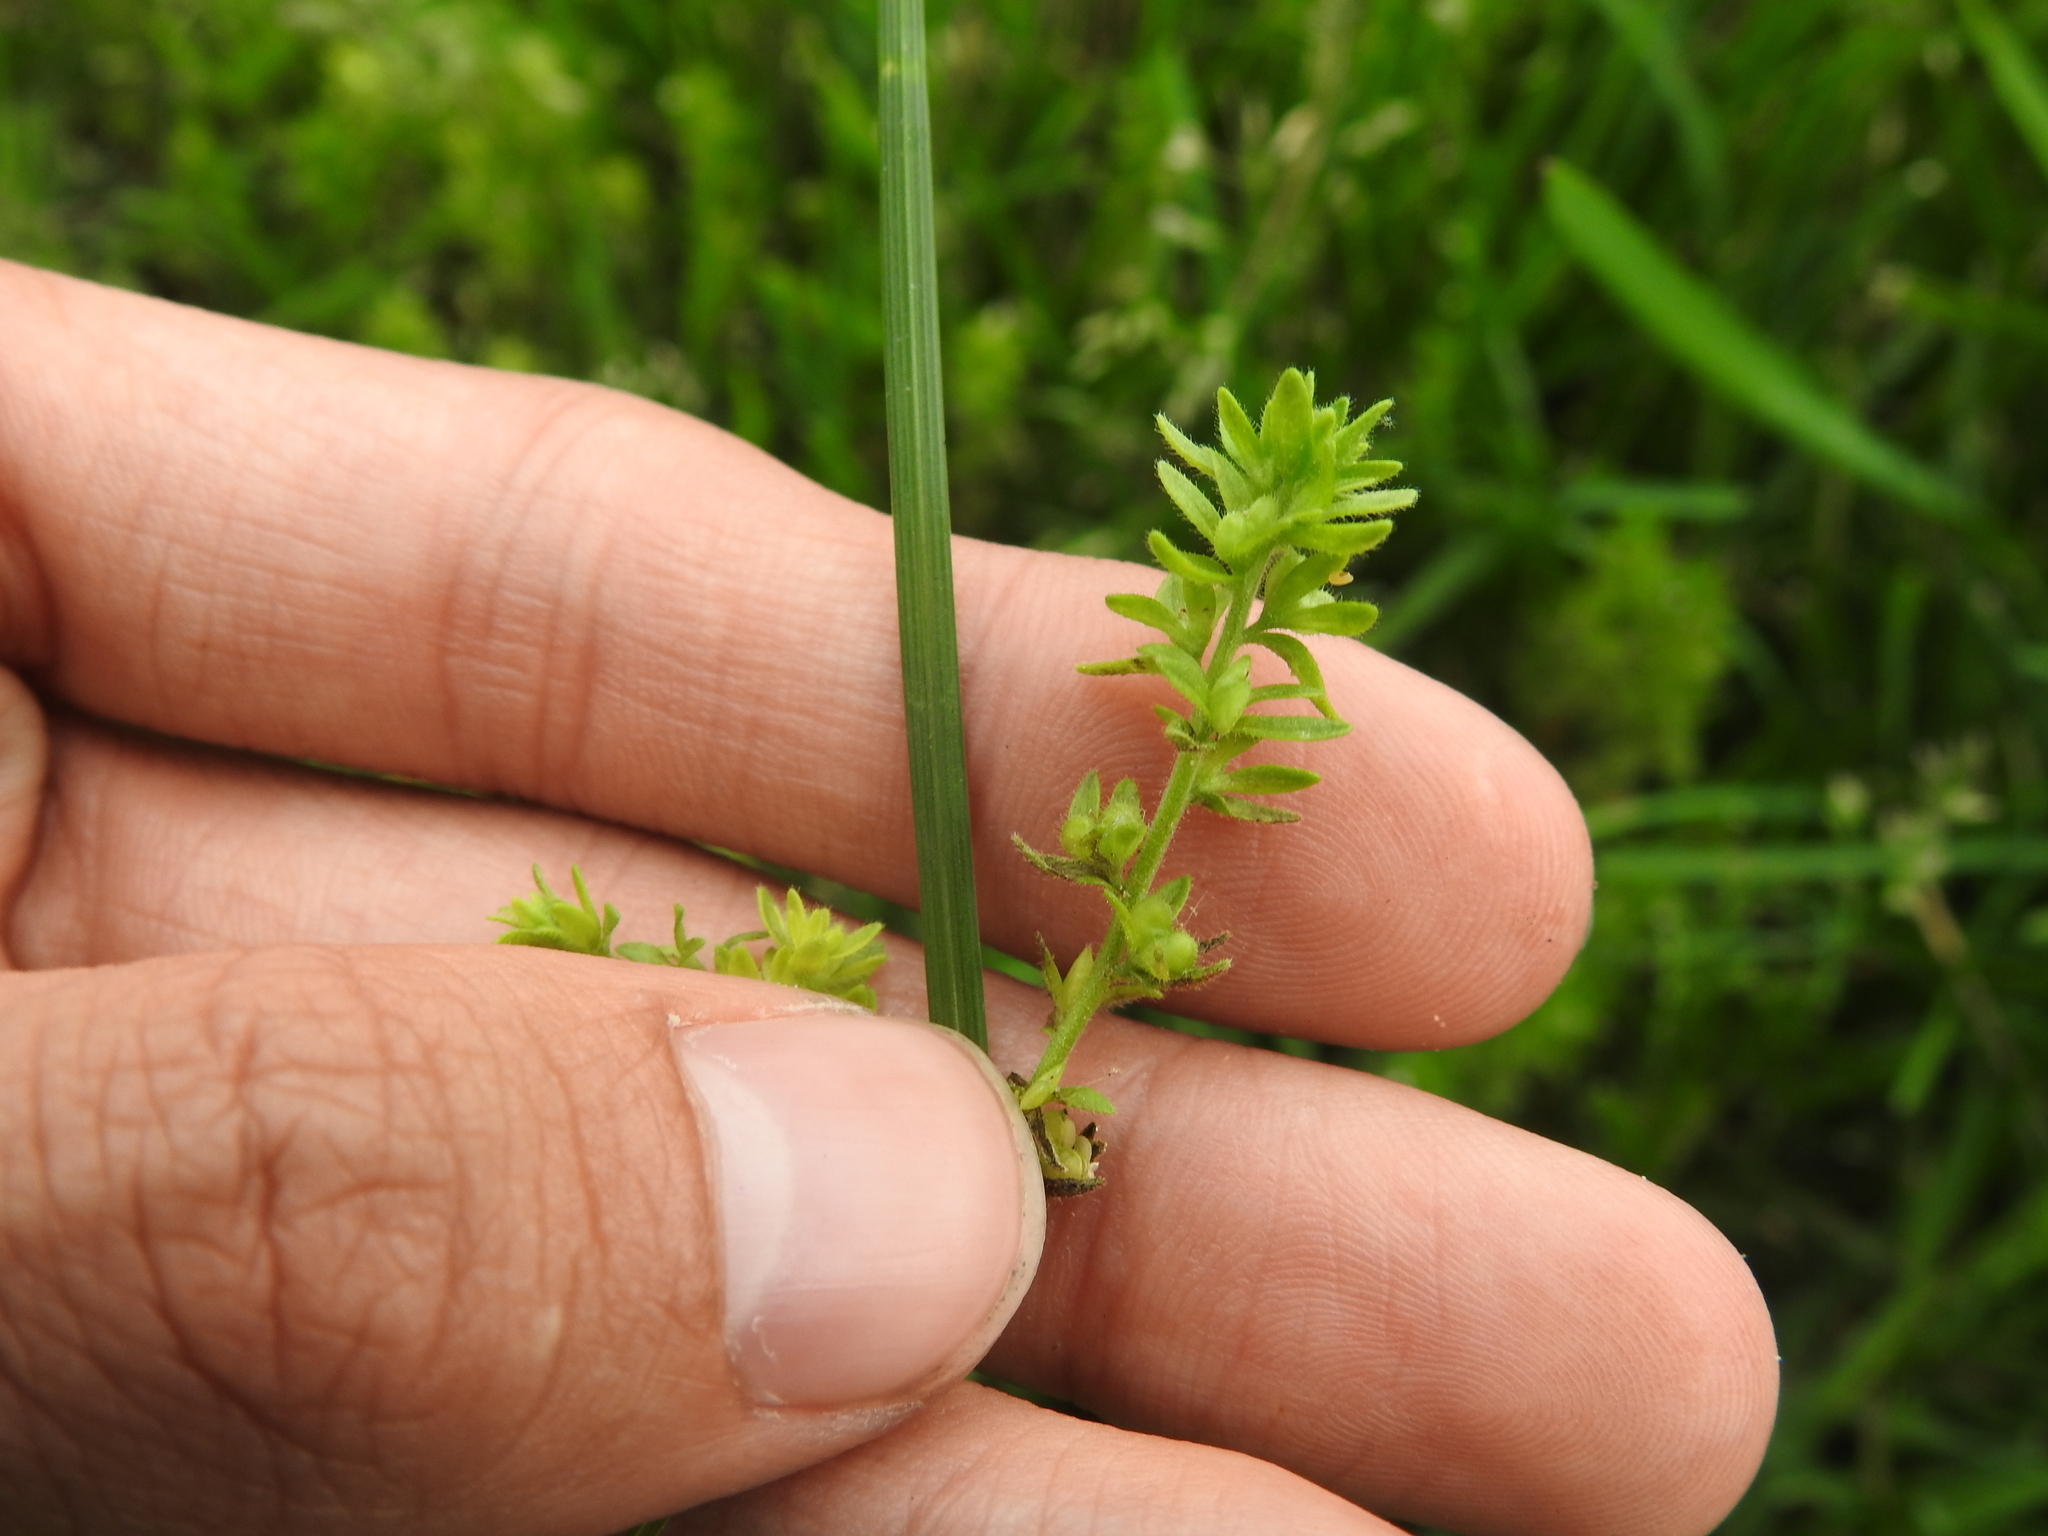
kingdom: Plantae
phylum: Tracheophyta
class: Magnoliopsida
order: Lamiales
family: Plantaginaceae
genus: Veronica
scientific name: Veronica arvensis
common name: Corn speedwell
